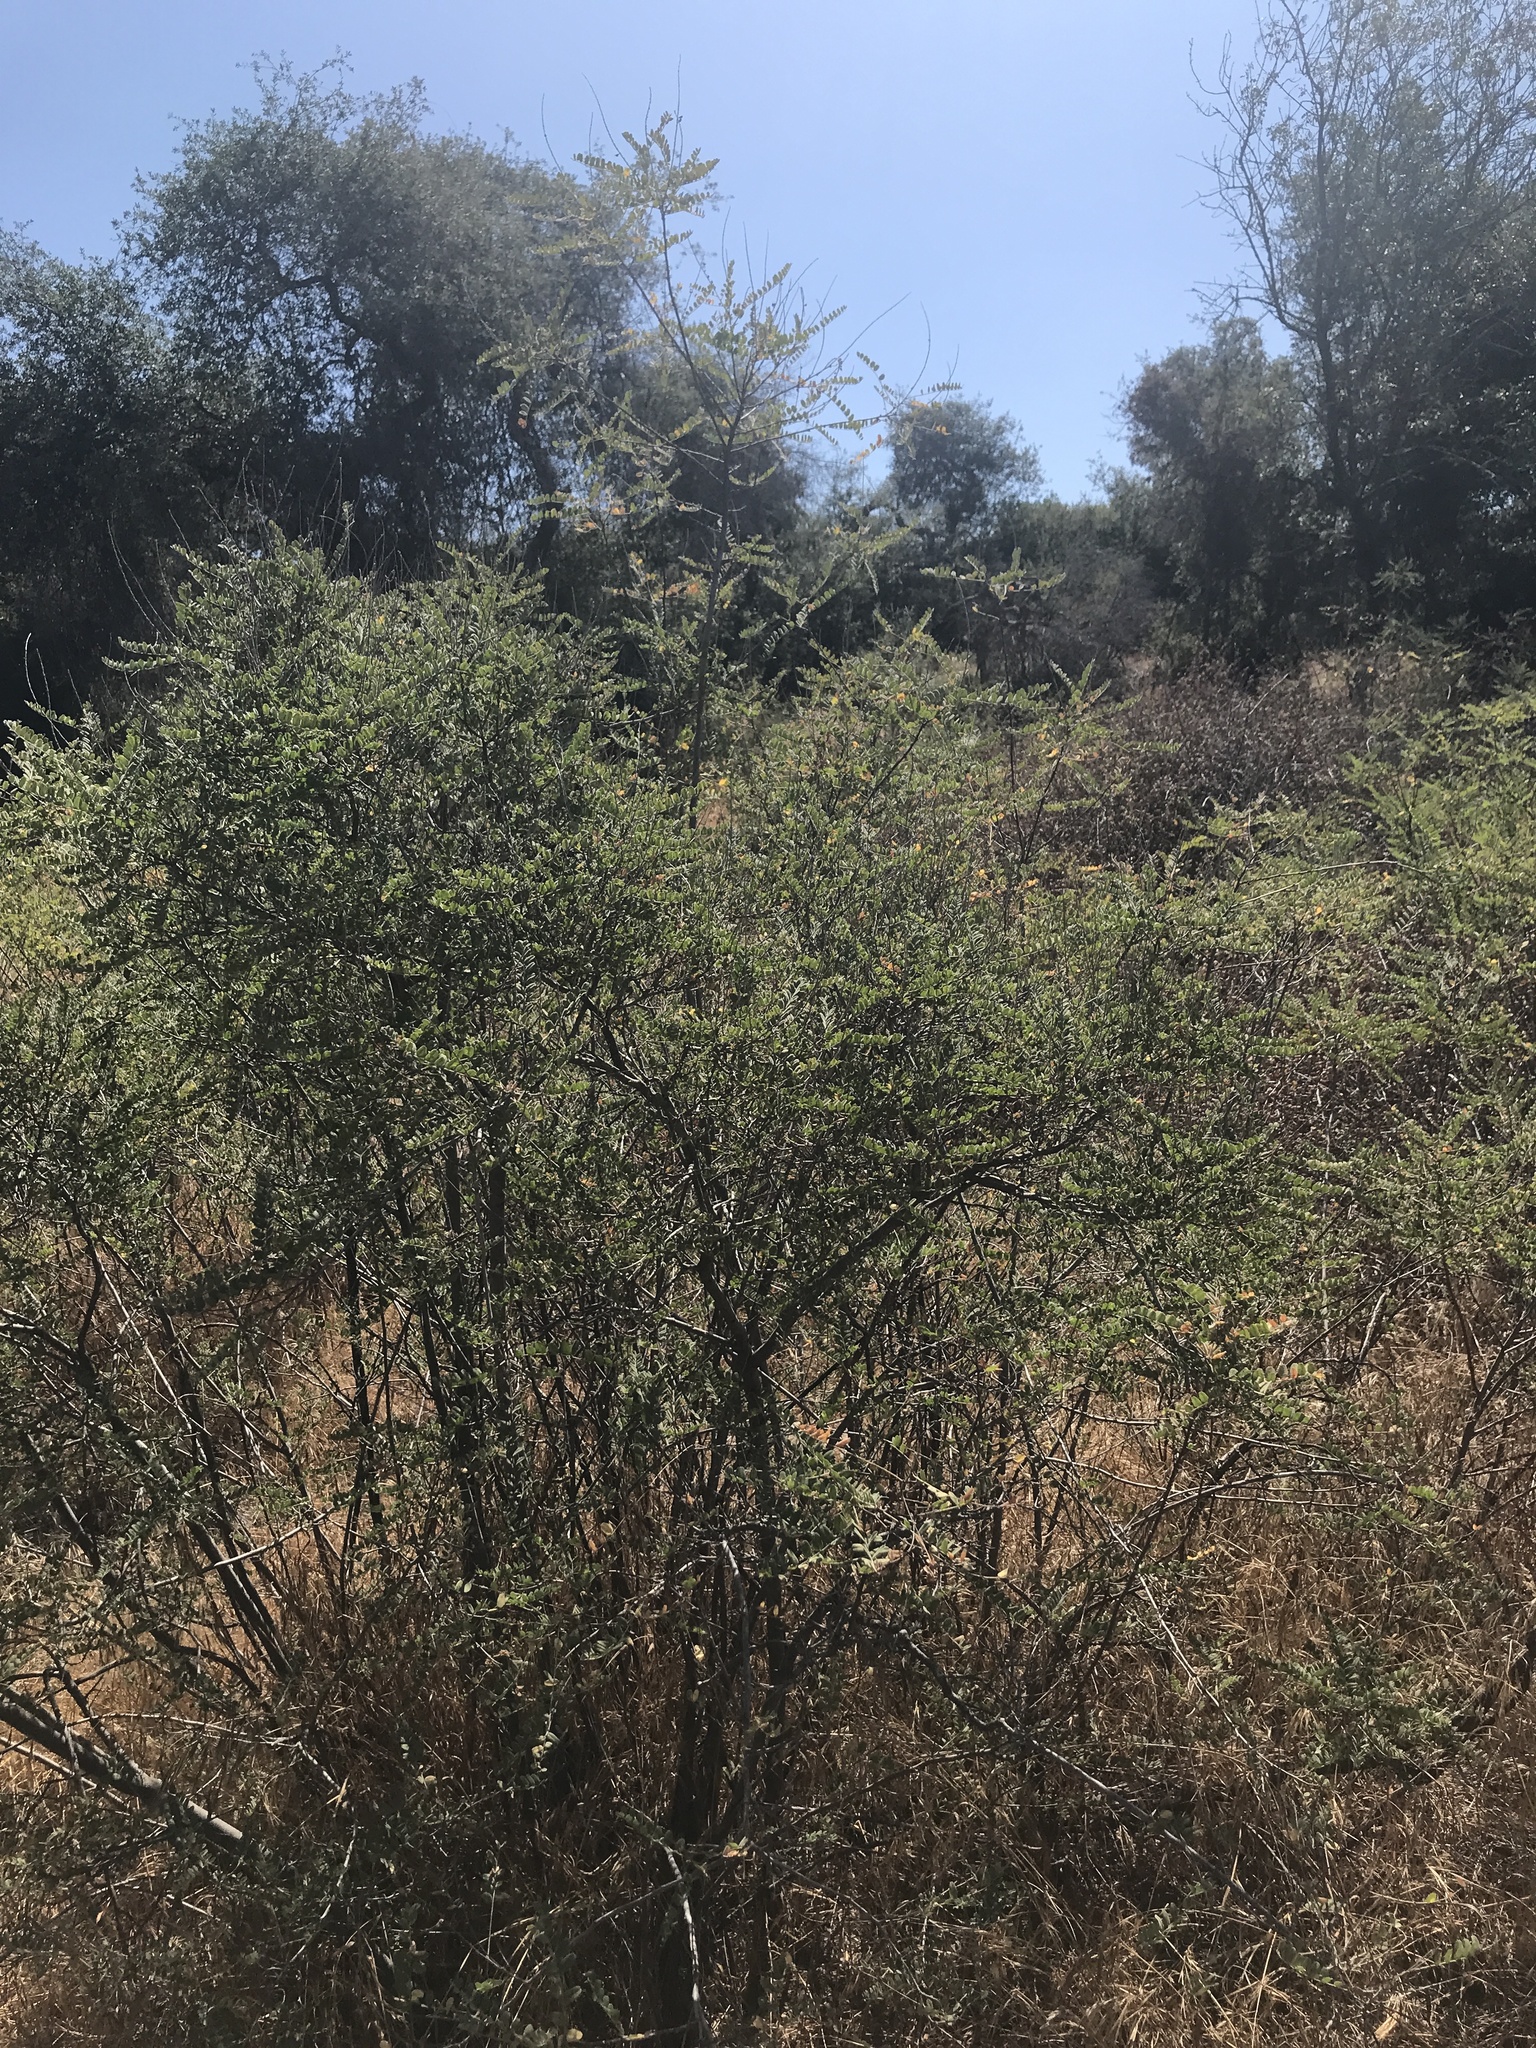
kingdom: Plantae
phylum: Tracheophyta
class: Magnoliopsida
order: Fabales
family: Fabaceae
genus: Amorpha
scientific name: Amorpha californica
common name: California indigobush
